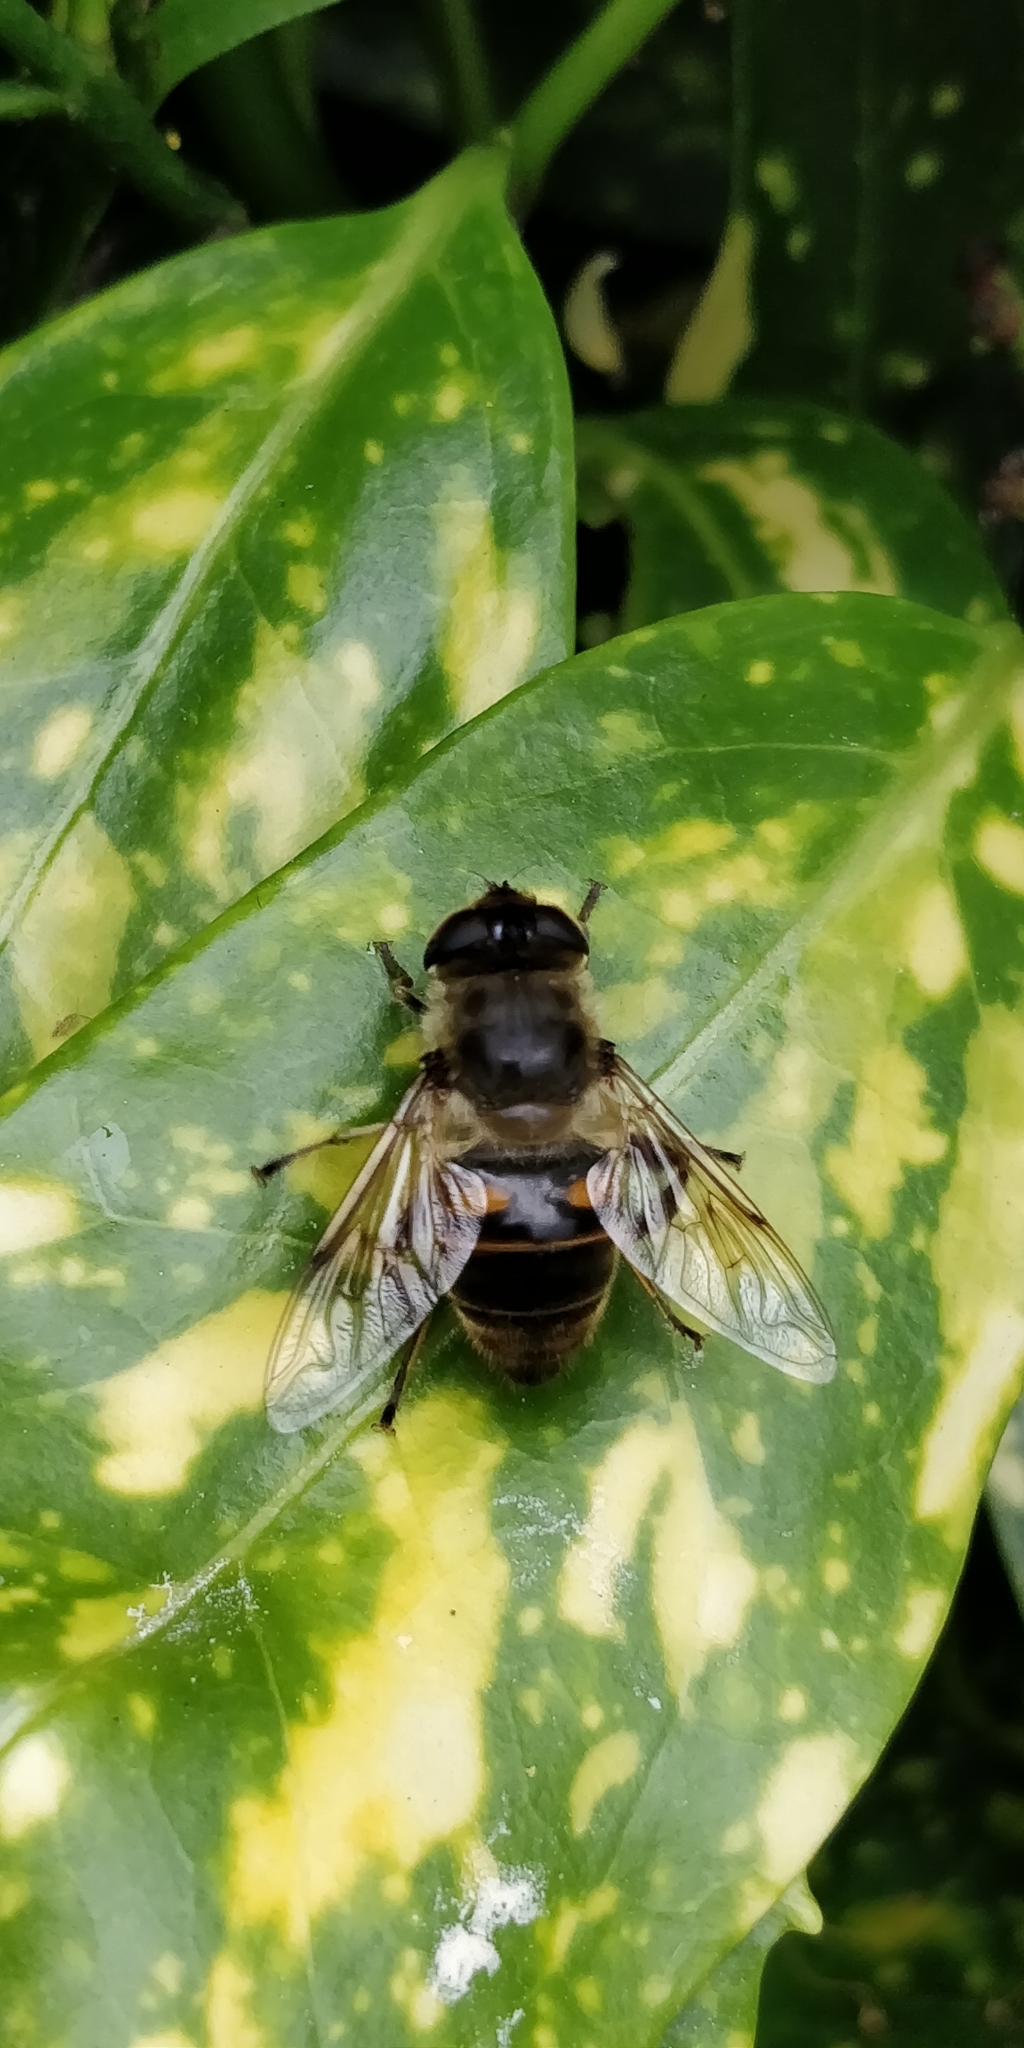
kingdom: Animalia
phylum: Arthropoda
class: Insecta
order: Diptera
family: Syrphidae
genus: Eristalis
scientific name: Eristalis tenax
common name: Drone fly
